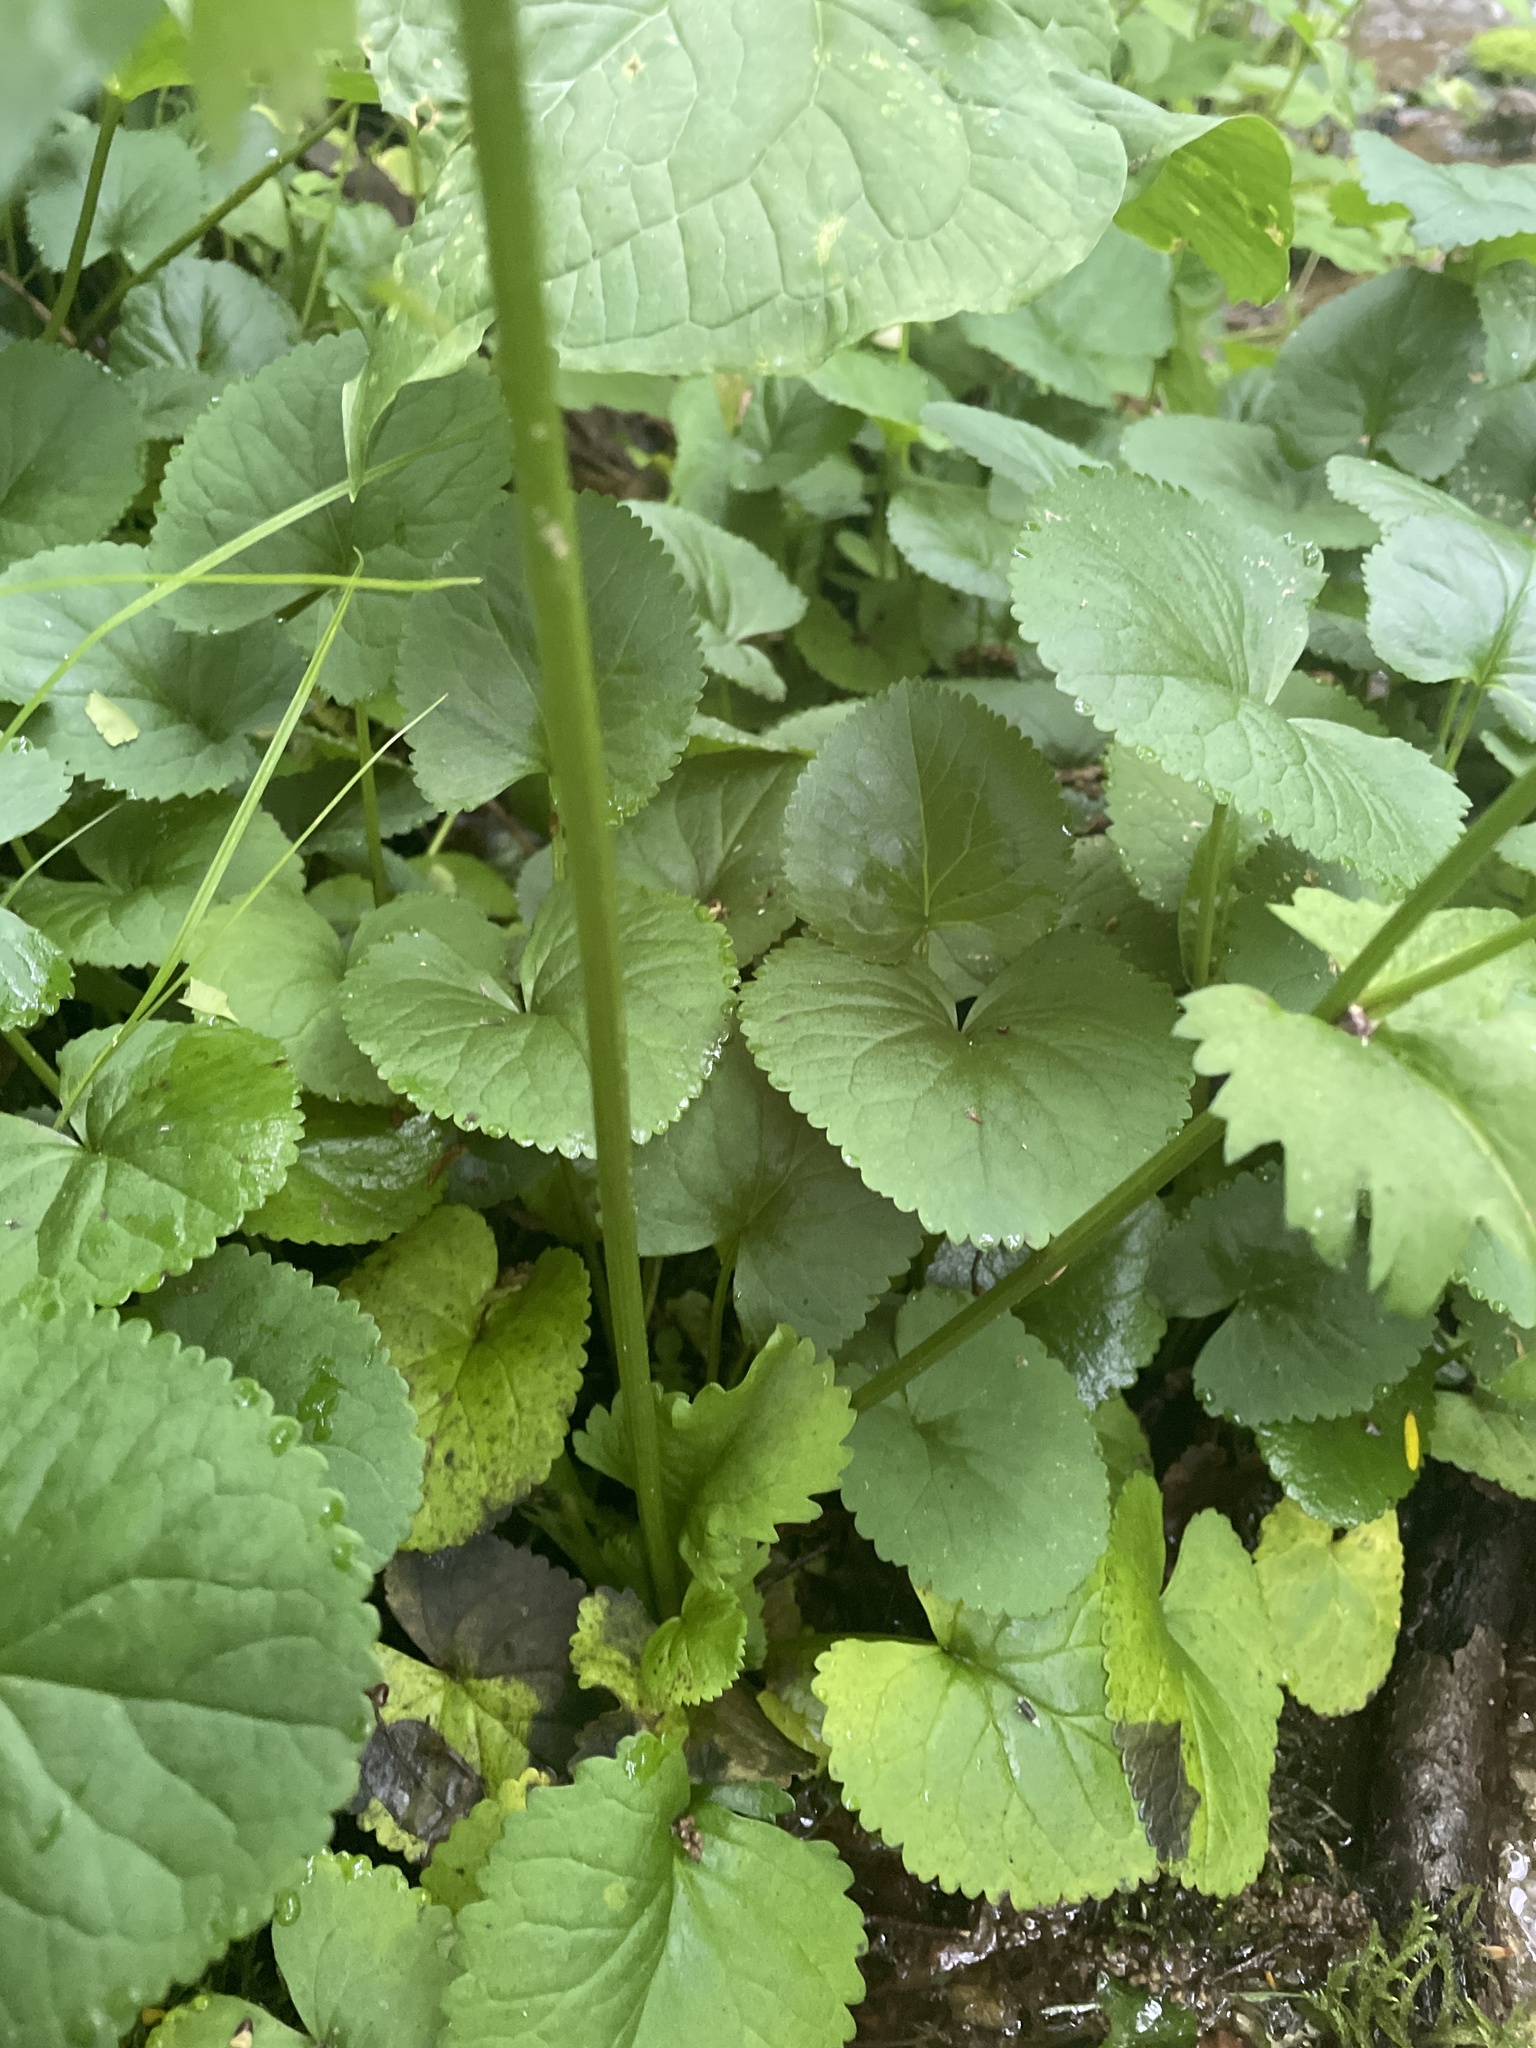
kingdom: Plantae
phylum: Tracheophyta
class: Magnoliopsida
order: Asterales
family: Asteraceae
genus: Packera
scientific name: Packera aurea
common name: Golden groundsel
